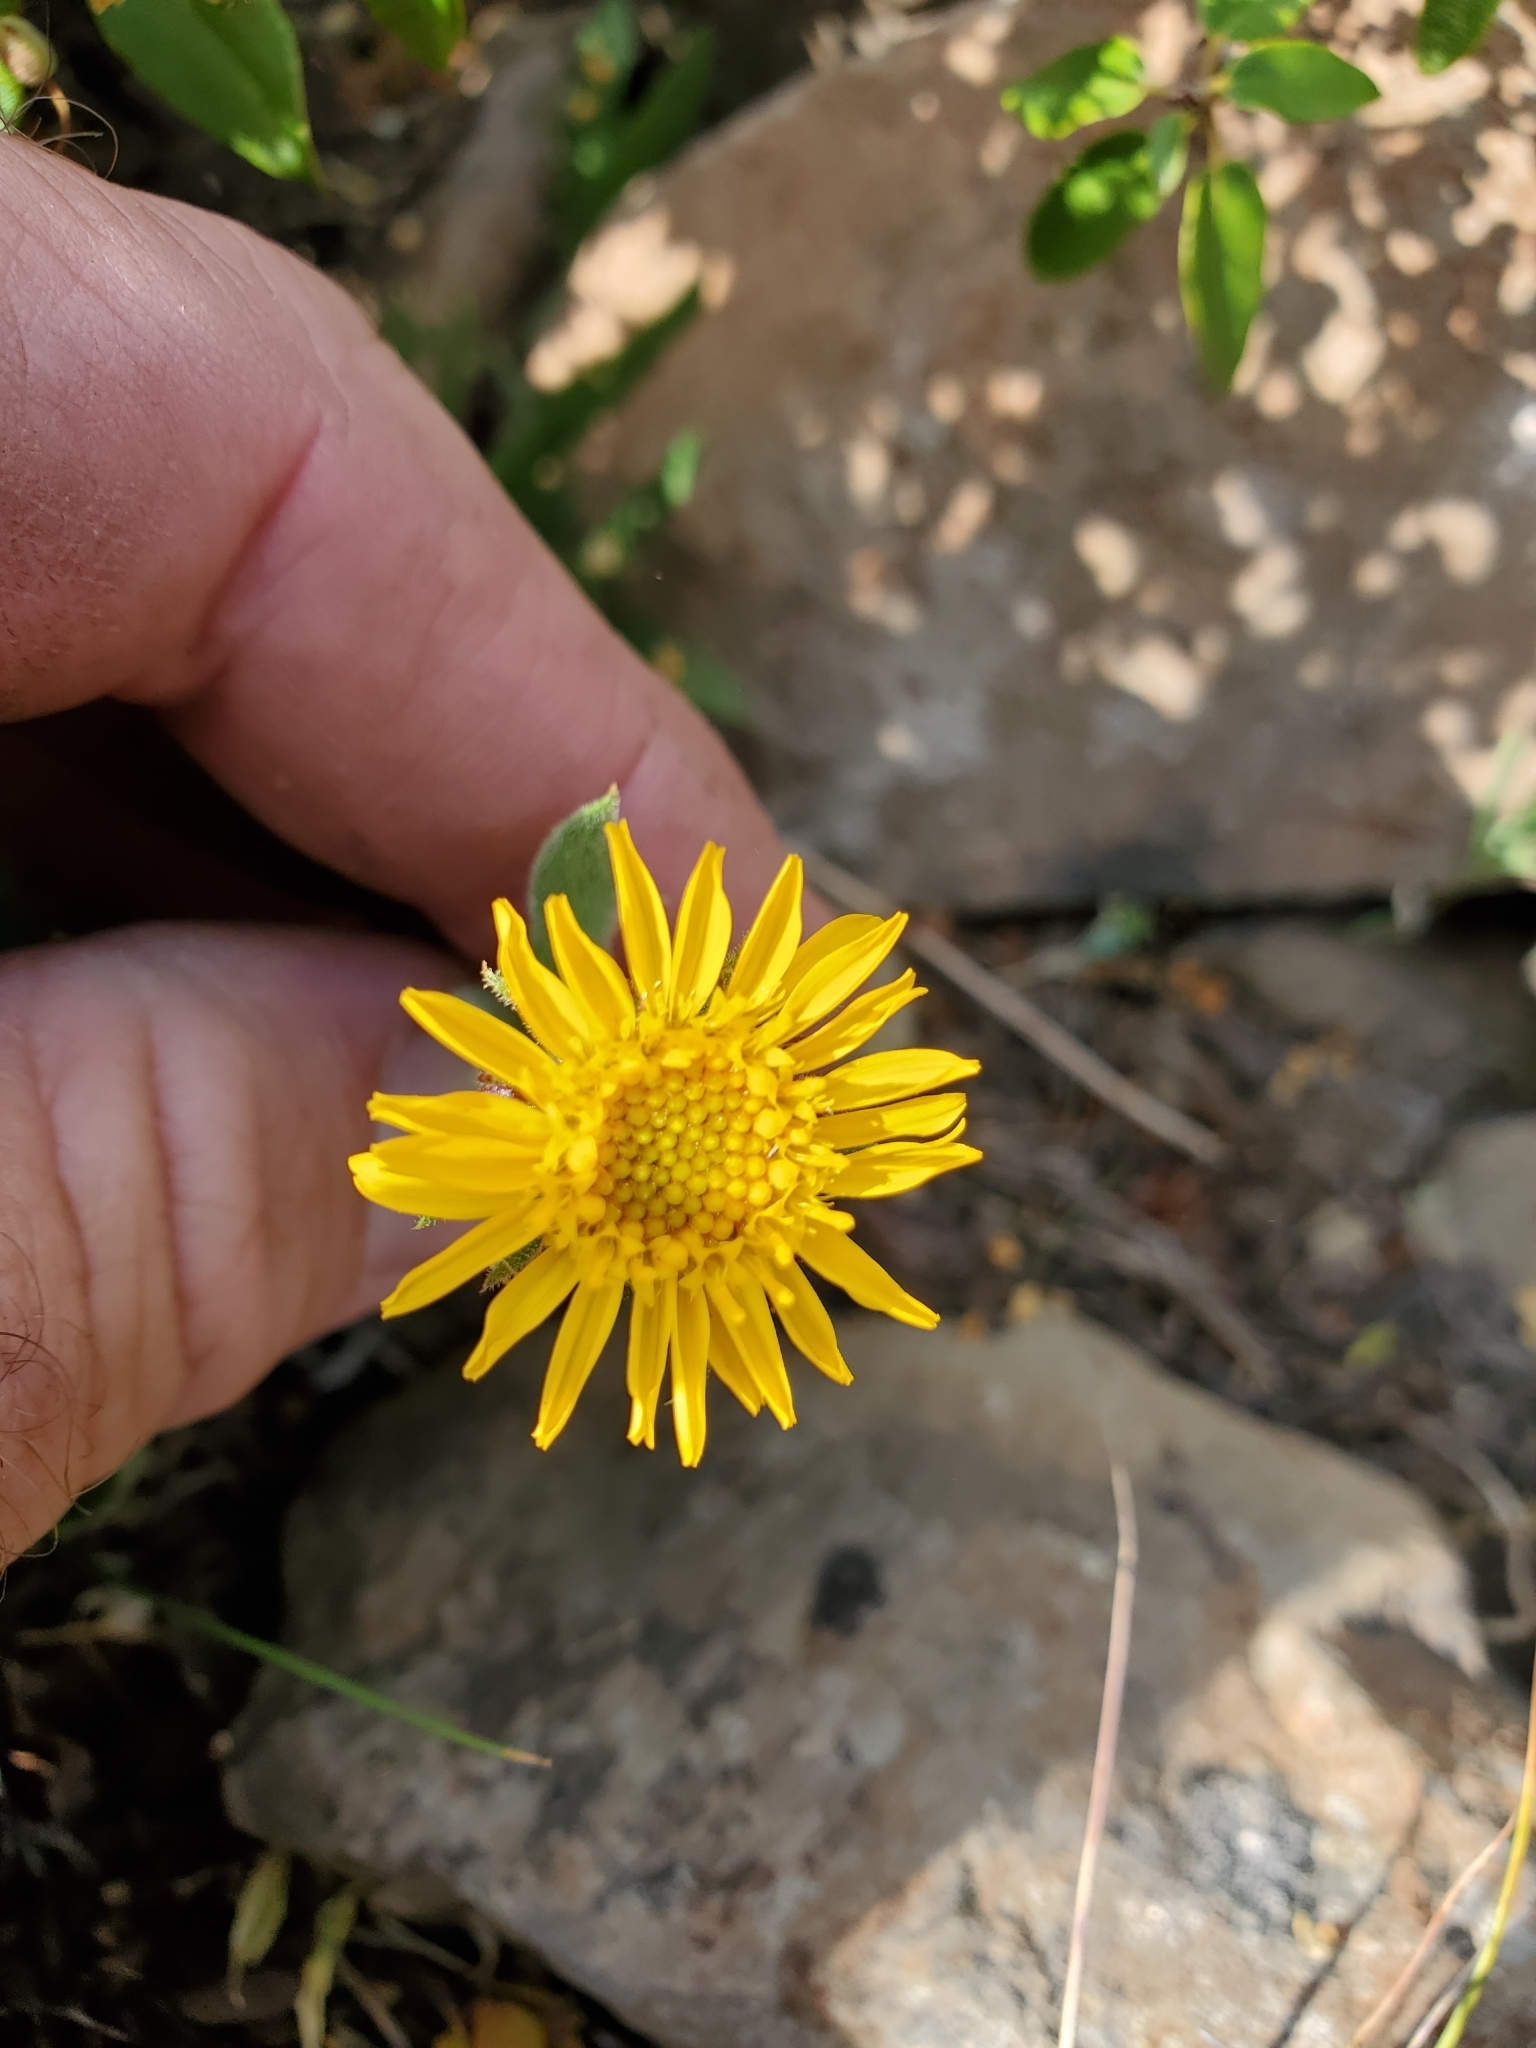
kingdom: Plantae
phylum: Tracheophyta
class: Magnoliopsida
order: Asterales
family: Asteraceae
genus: Tonestus
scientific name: Tonestus lyallii
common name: Lyall's goldenweed
